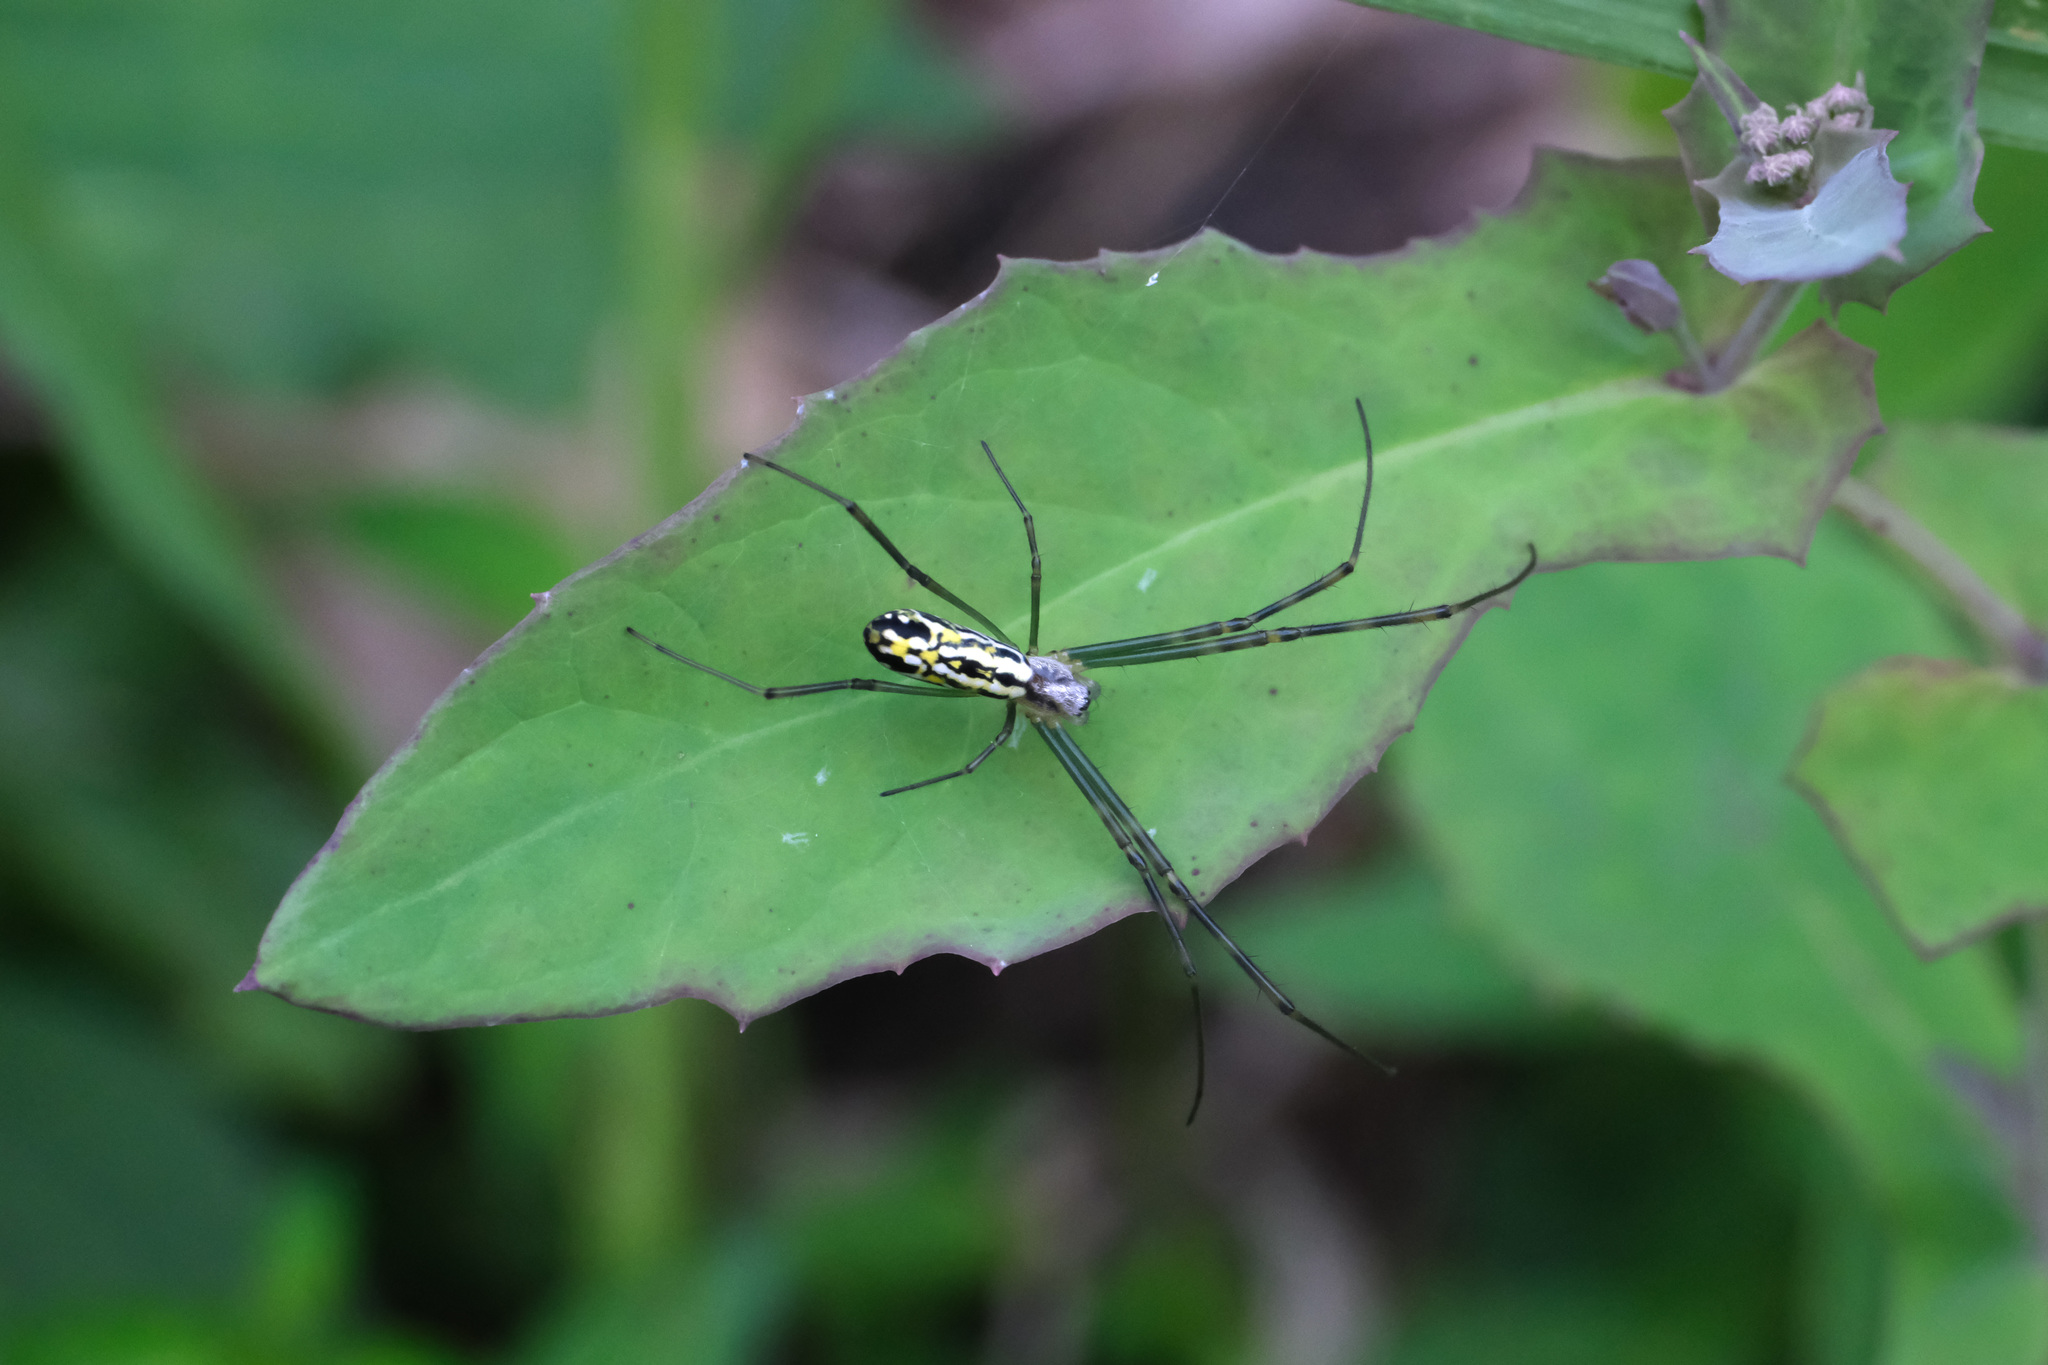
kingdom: Animalia
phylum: Arthropoda
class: Arachnida
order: Araneae
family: Araneidae
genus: Trichonephila
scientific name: Trichonephila clavata
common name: Jorō spider
